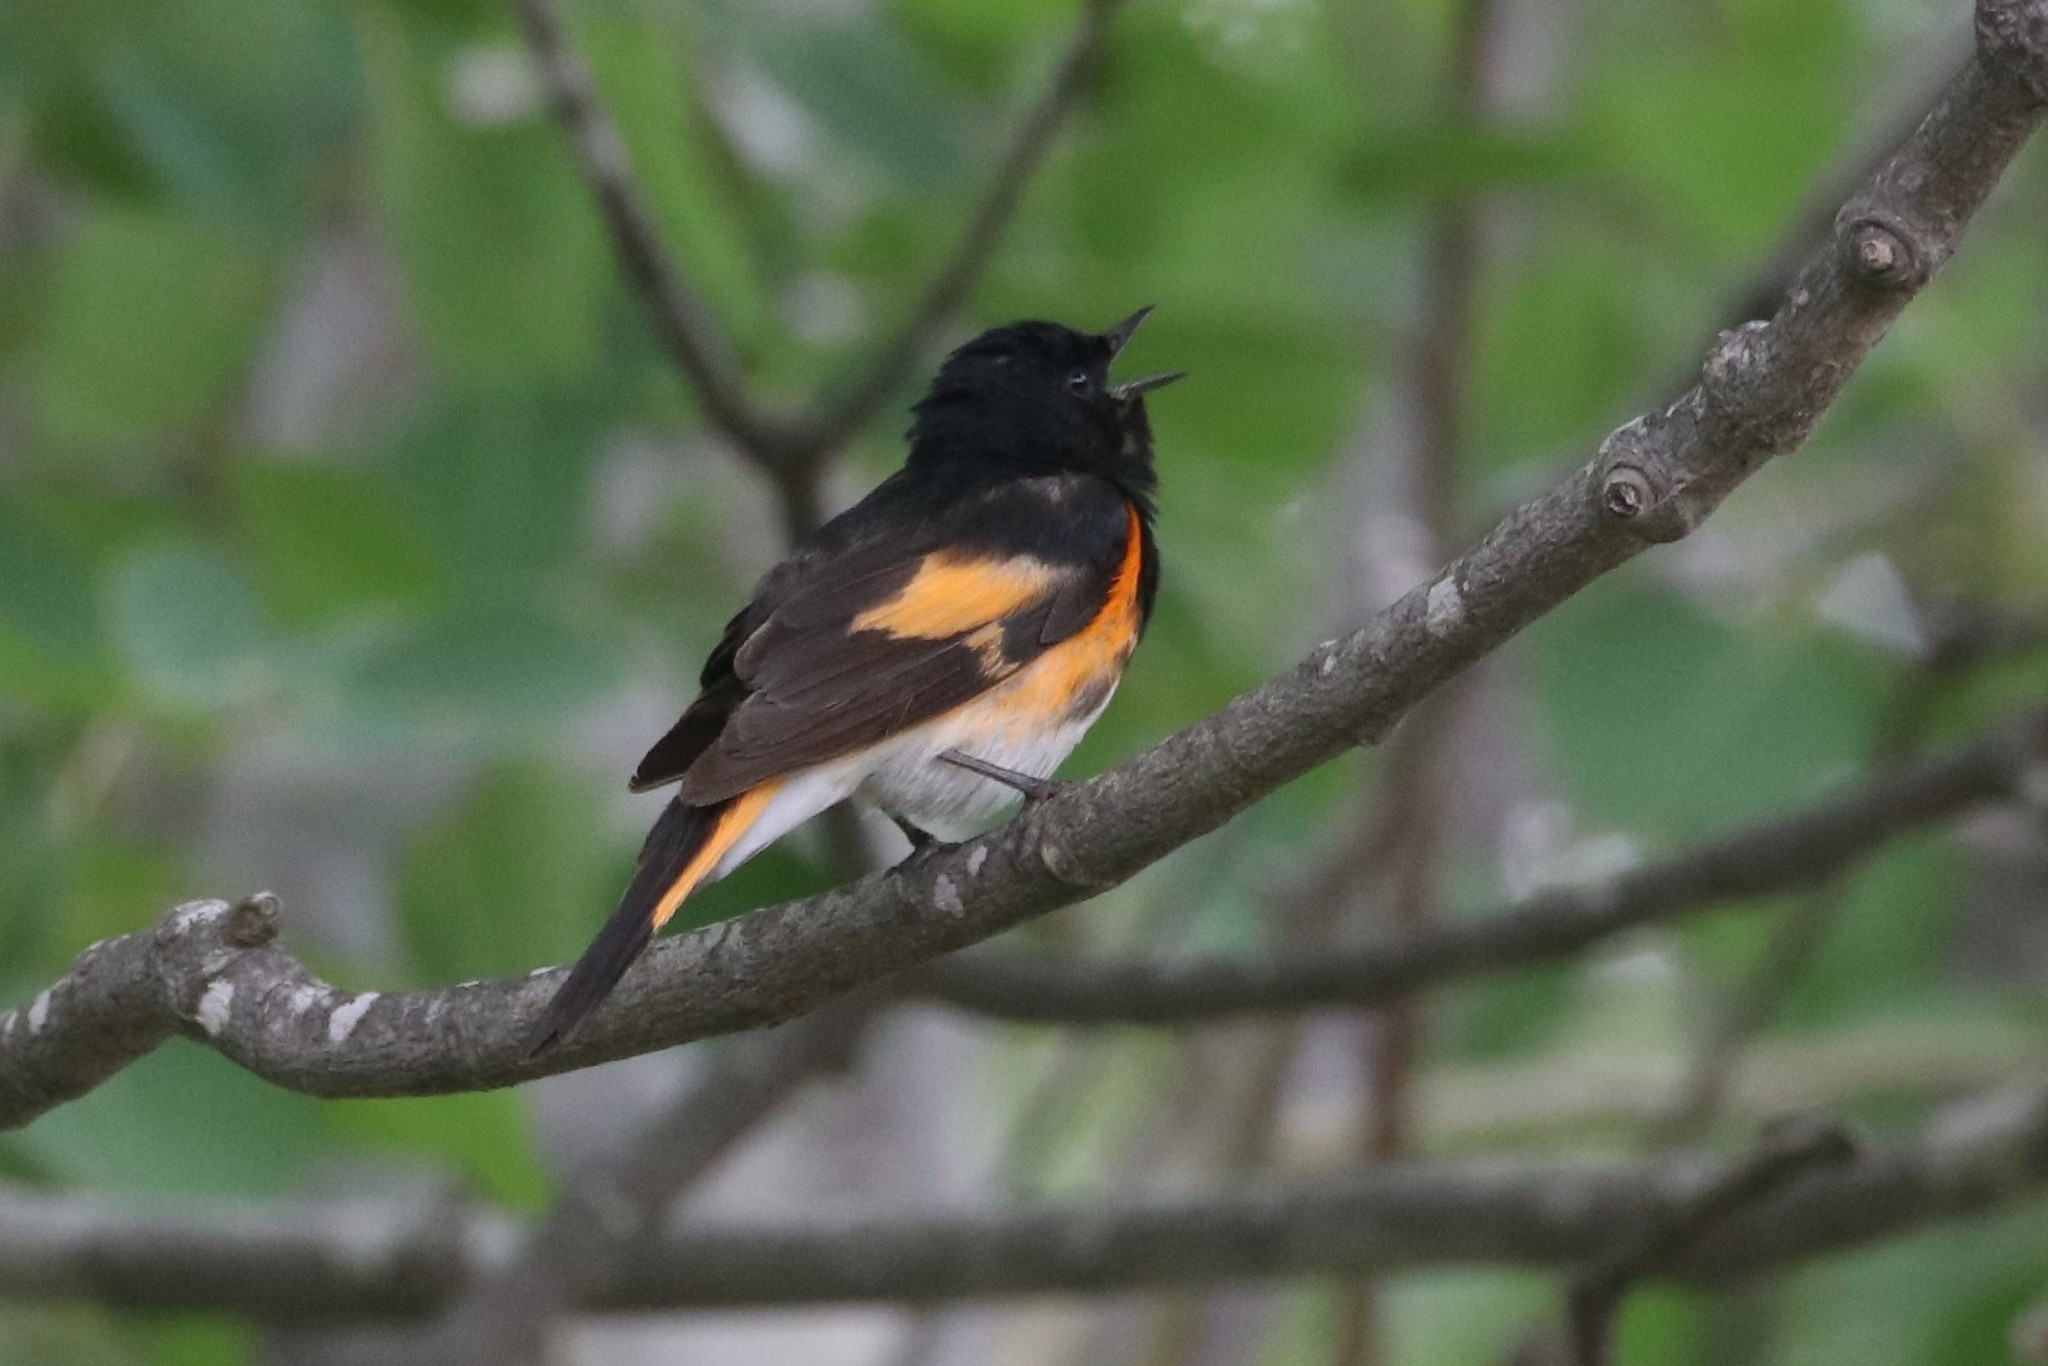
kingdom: Animalia
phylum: Chordata
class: Aves
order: Passeriformes
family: Parulidae
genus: Setophaga
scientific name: Setophaga ruticilla
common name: American redstart
